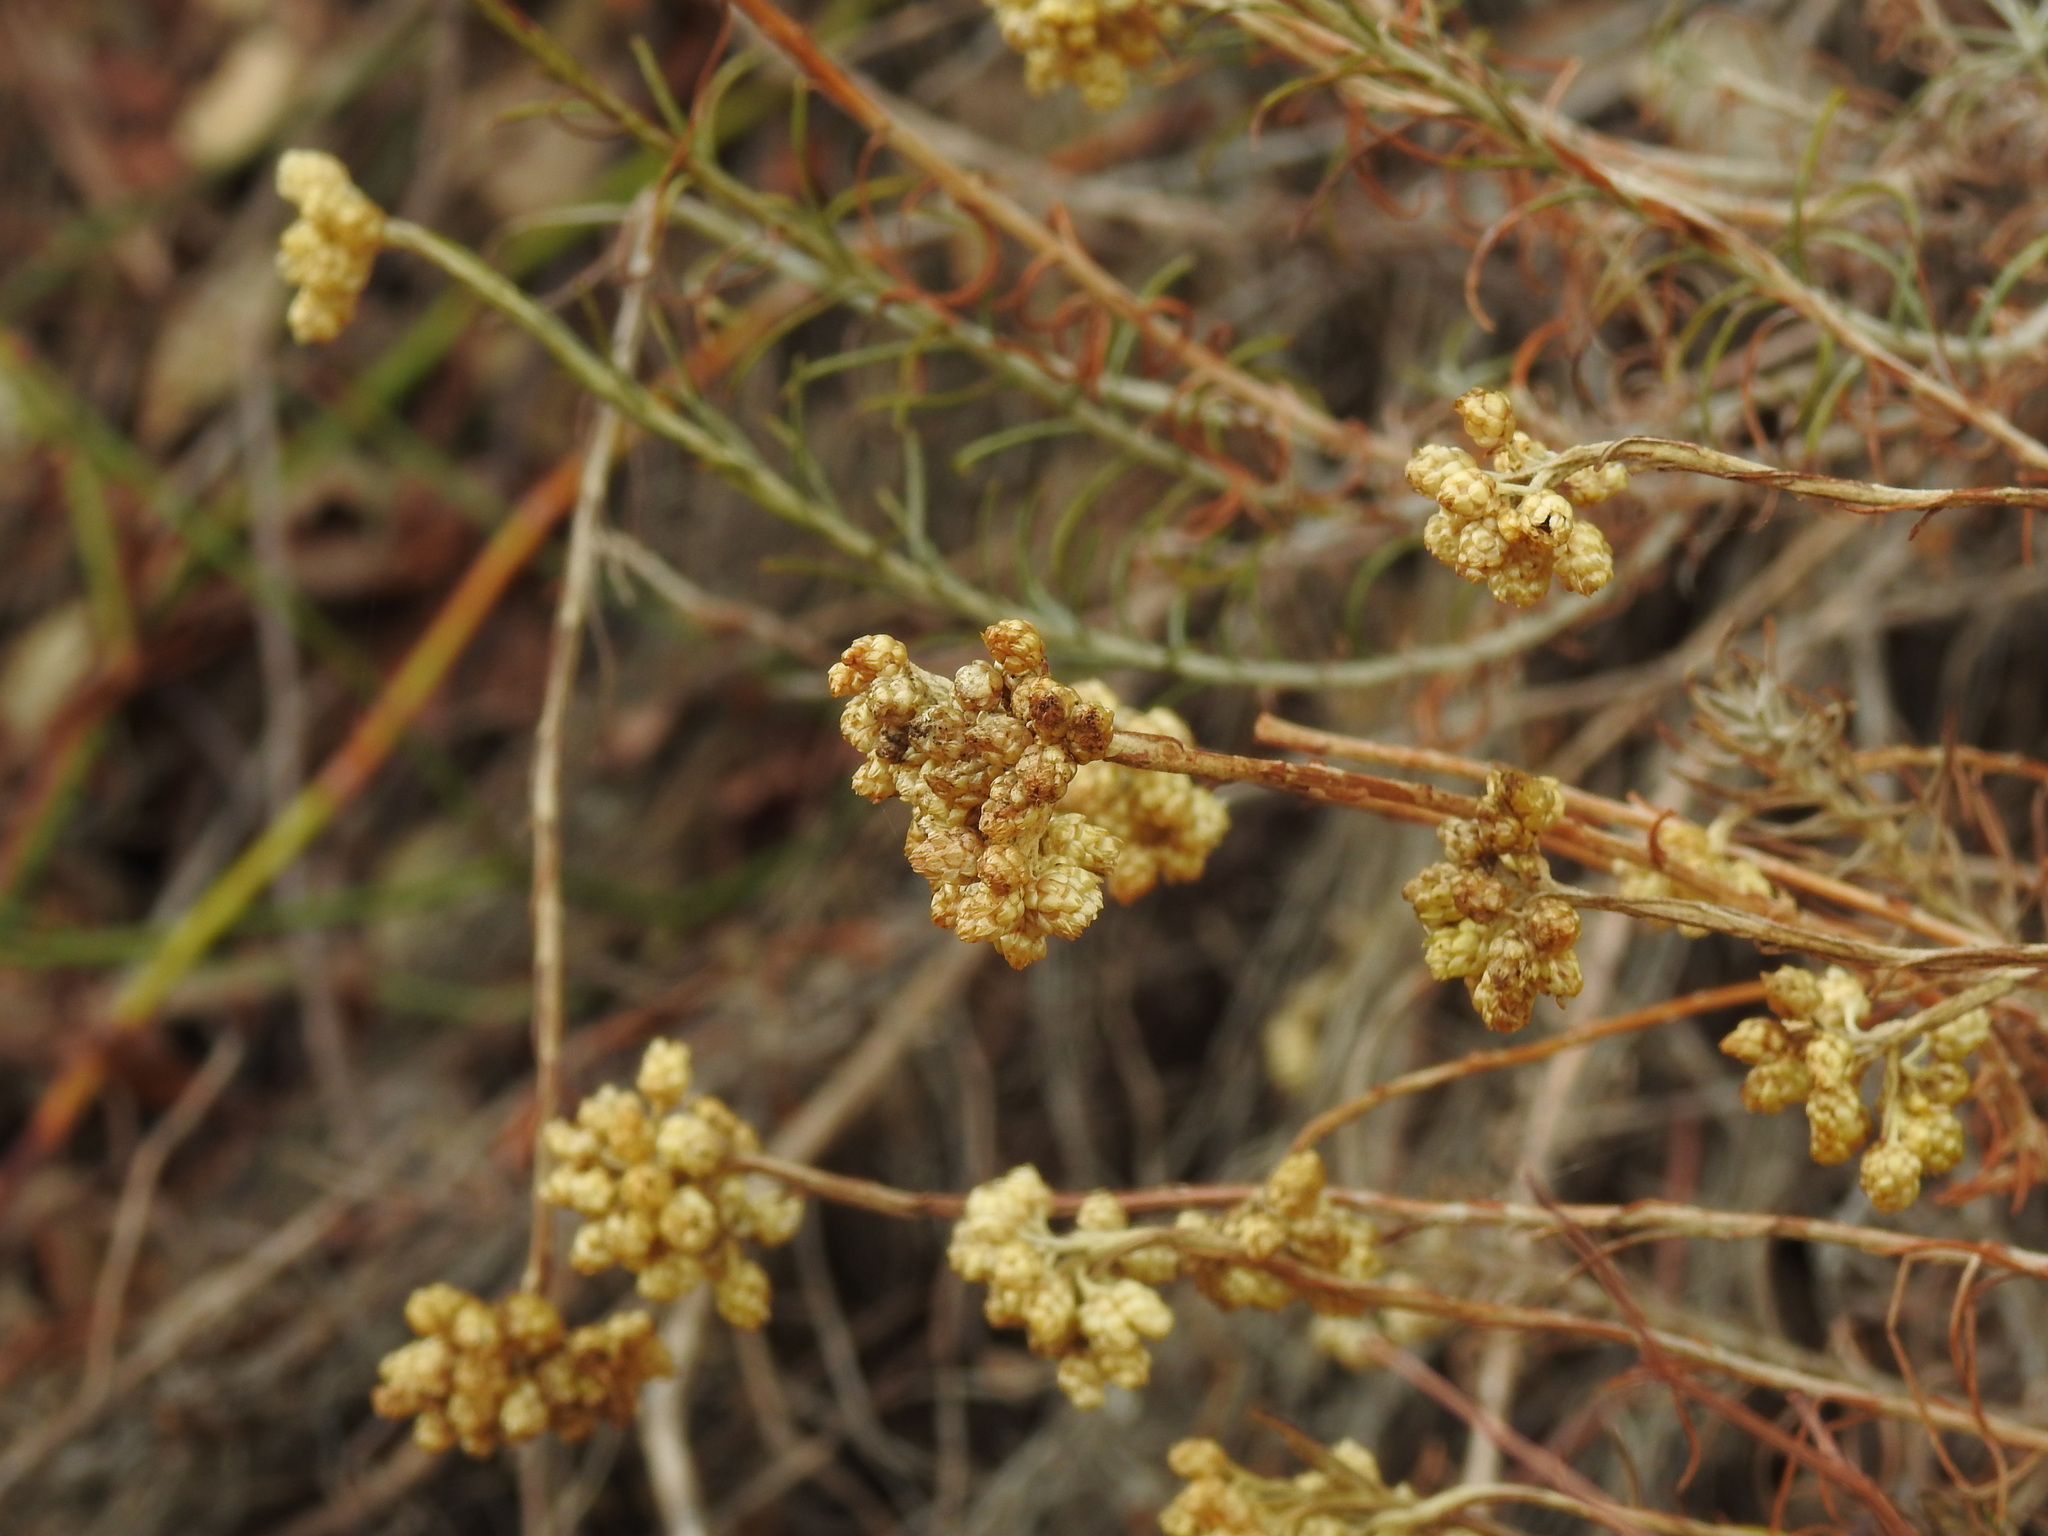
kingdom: Plantae
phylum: Tracheophyta
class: Magnoliopsida
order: Asterales
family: Asteraceae
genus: Helichrysum
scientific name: Helichrysum stoechas
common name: Goldilocks
